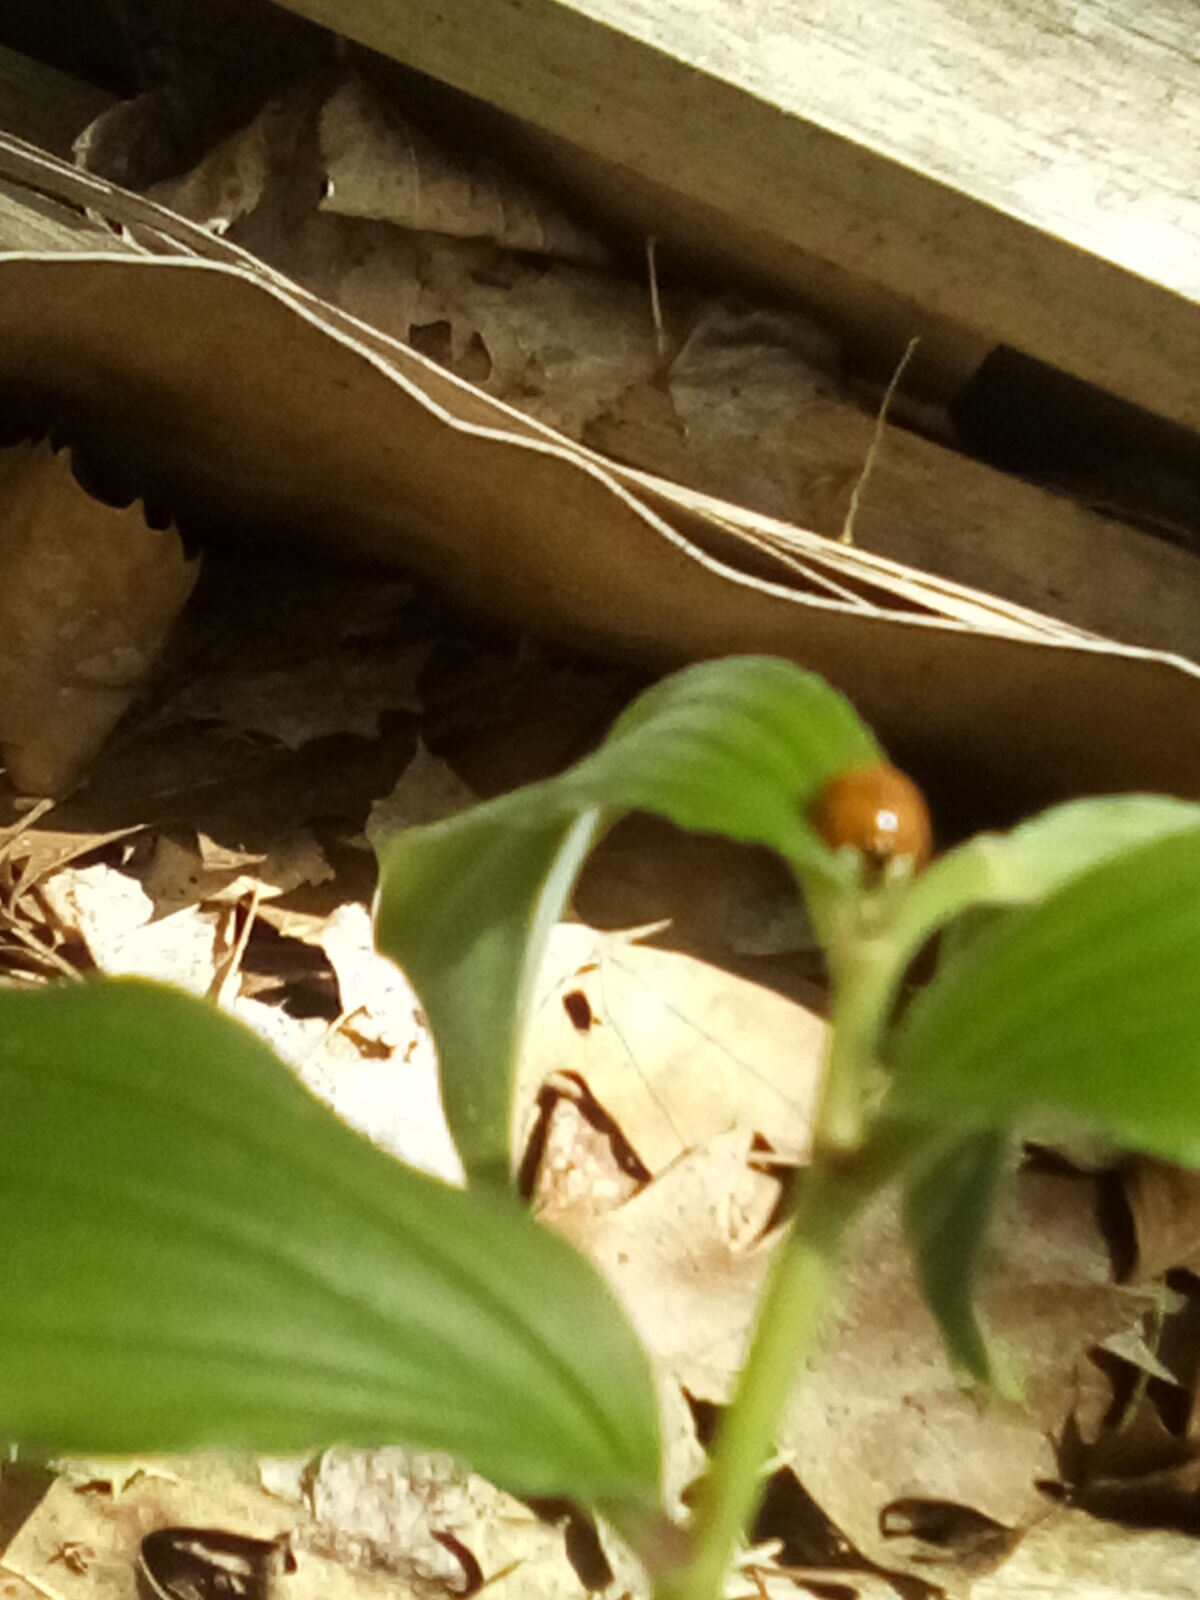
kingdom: Animalia
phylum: Arthropoda
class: Insecta
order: Coleoptera
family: Coccinellidae
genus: Harmonia
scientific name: Harmonia axyridis
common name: Harlequin ladybird
